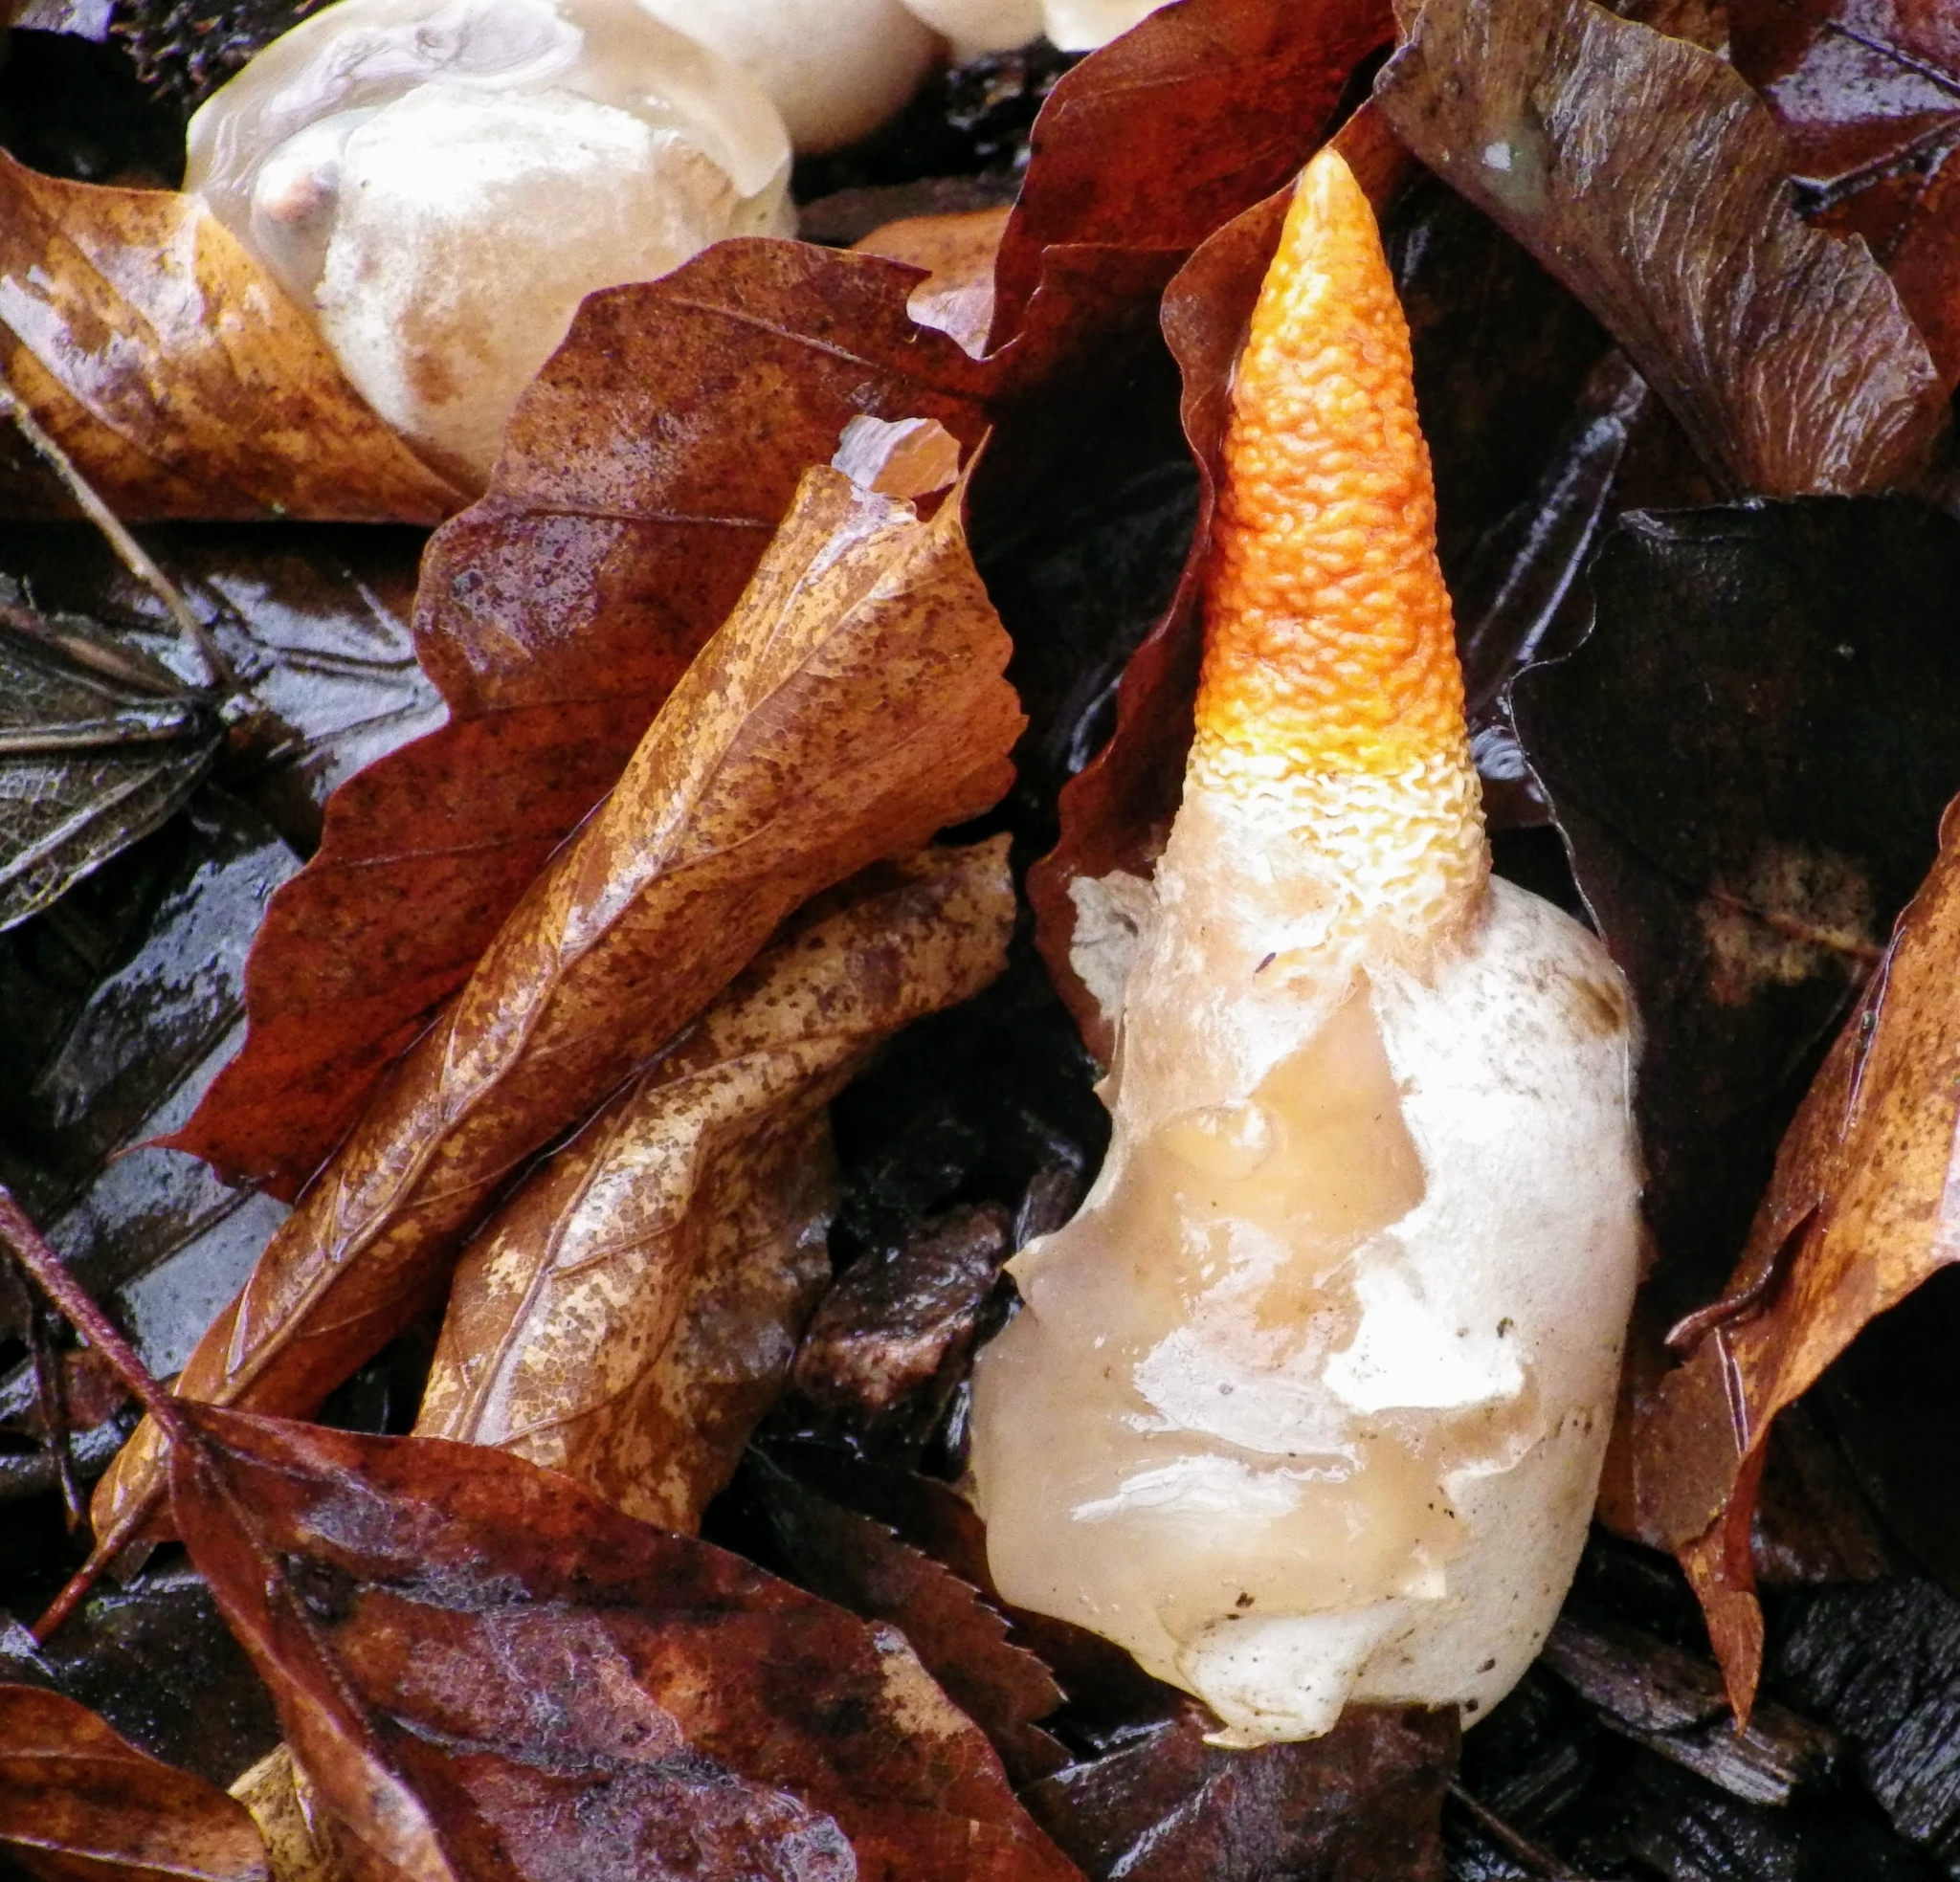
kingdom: Fungi
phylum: Basidiomycota
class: Agaricomycetes
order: Phallales
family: Phallaceae
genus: Mutinus
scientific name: Mutinus caninus
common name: Dog stinkhorn
